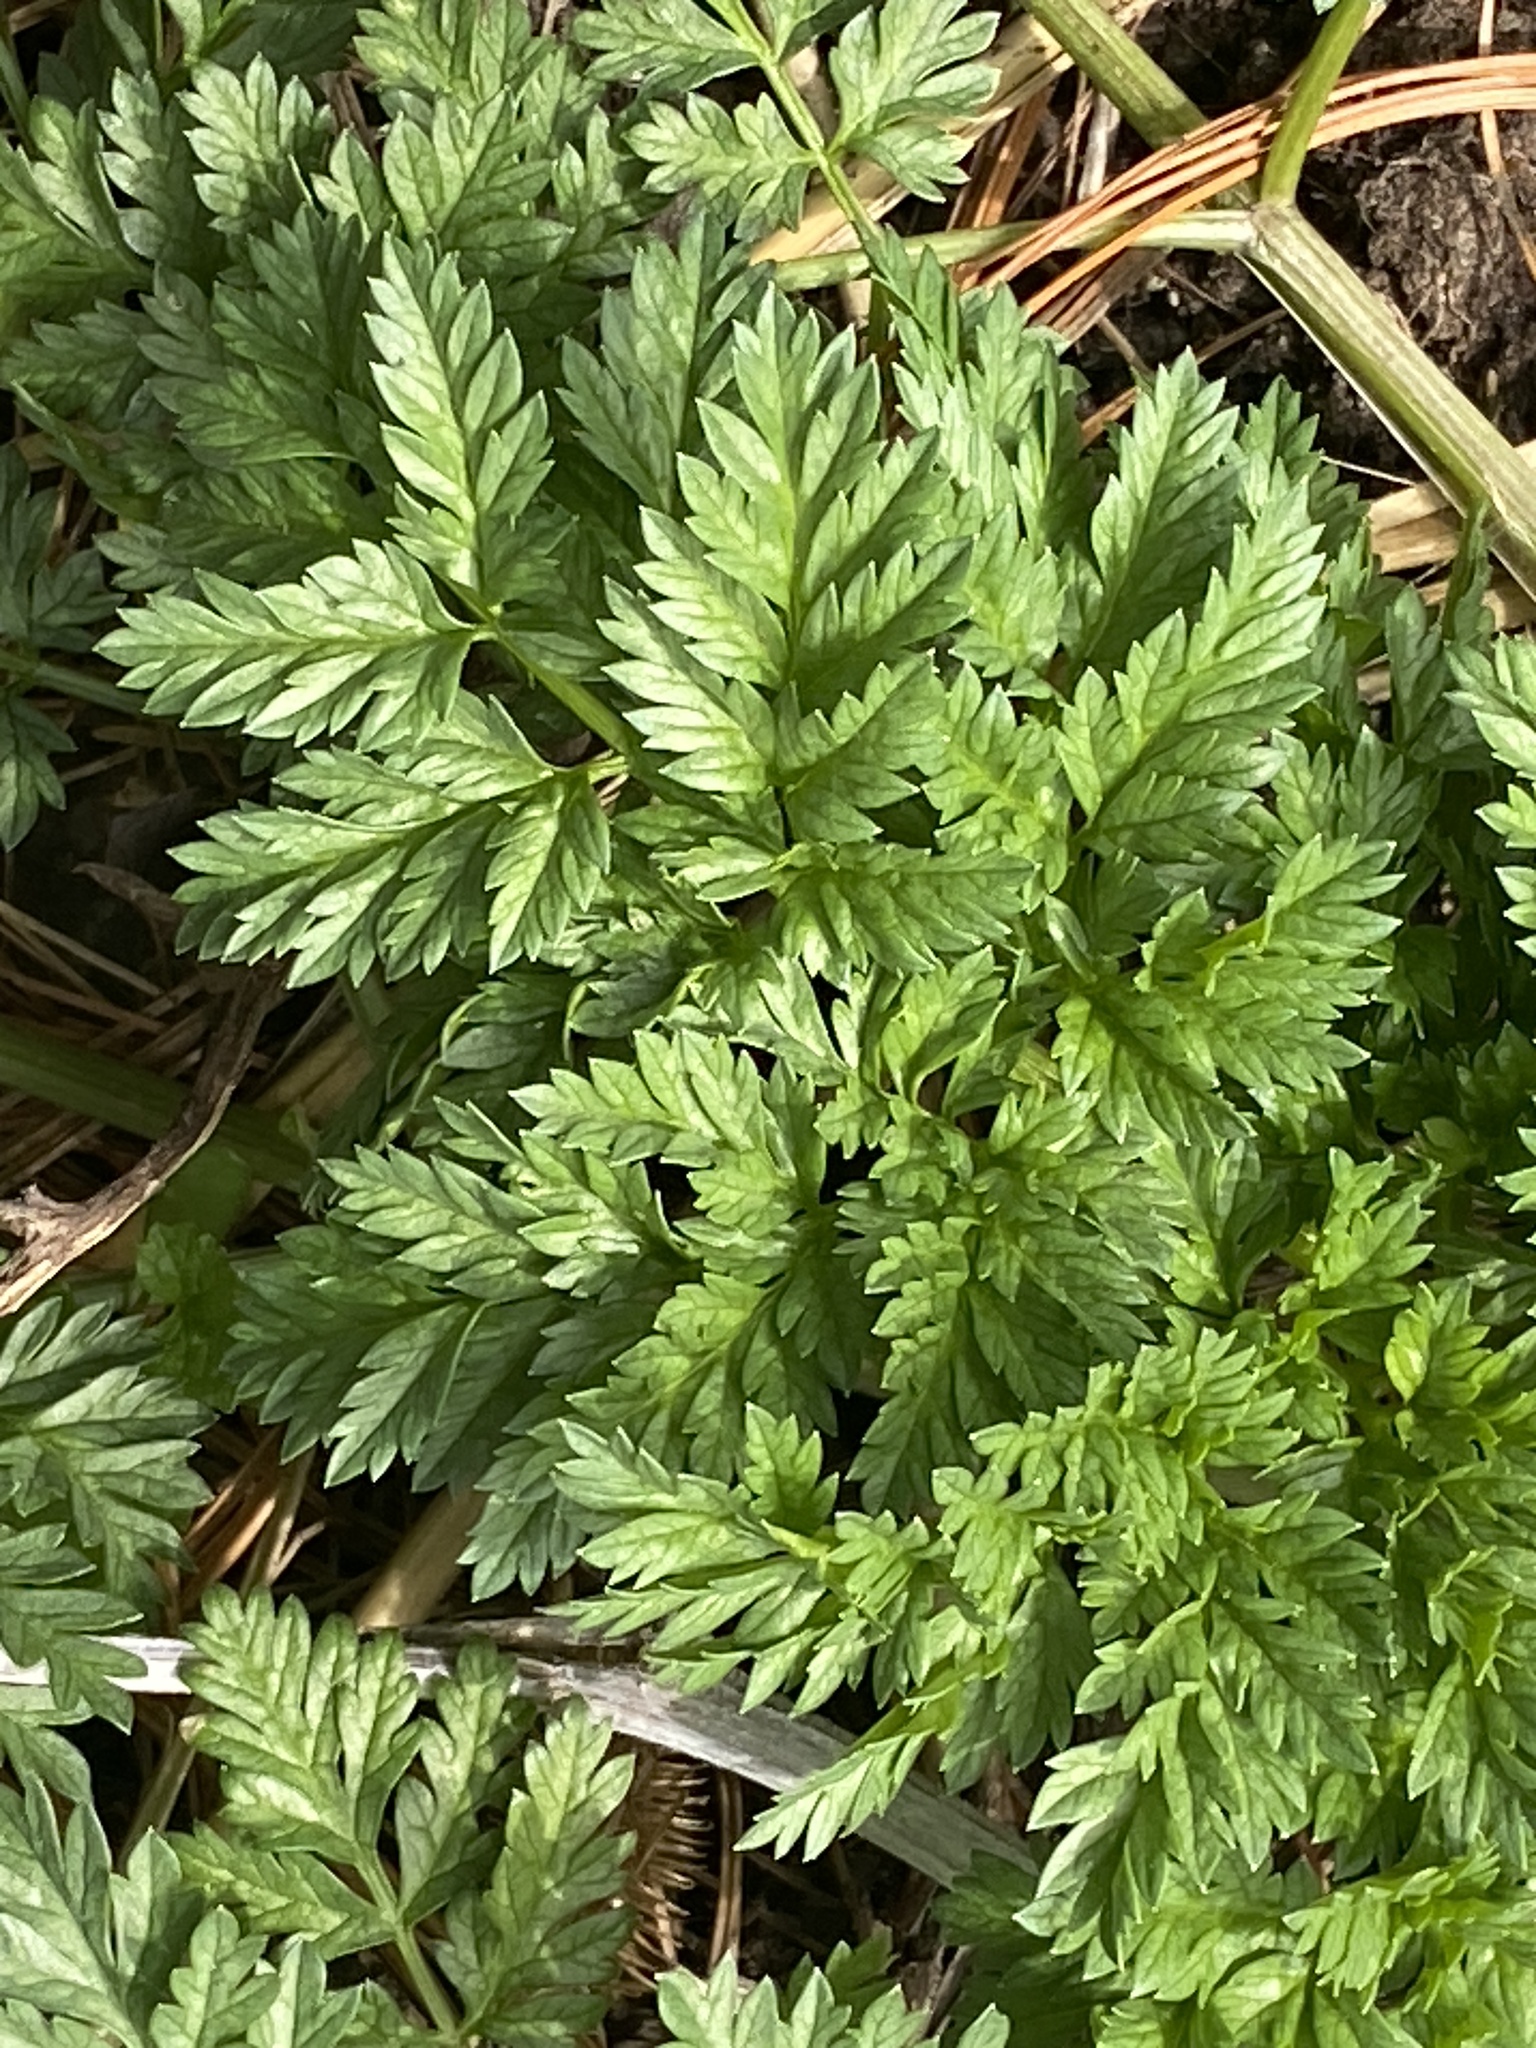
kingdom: Plantae
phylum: Tracheophyta
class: Magnoliopsida
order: Apiales
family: Apiaceae
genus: Conium
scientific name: Conium maculatum
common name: Hemlock
